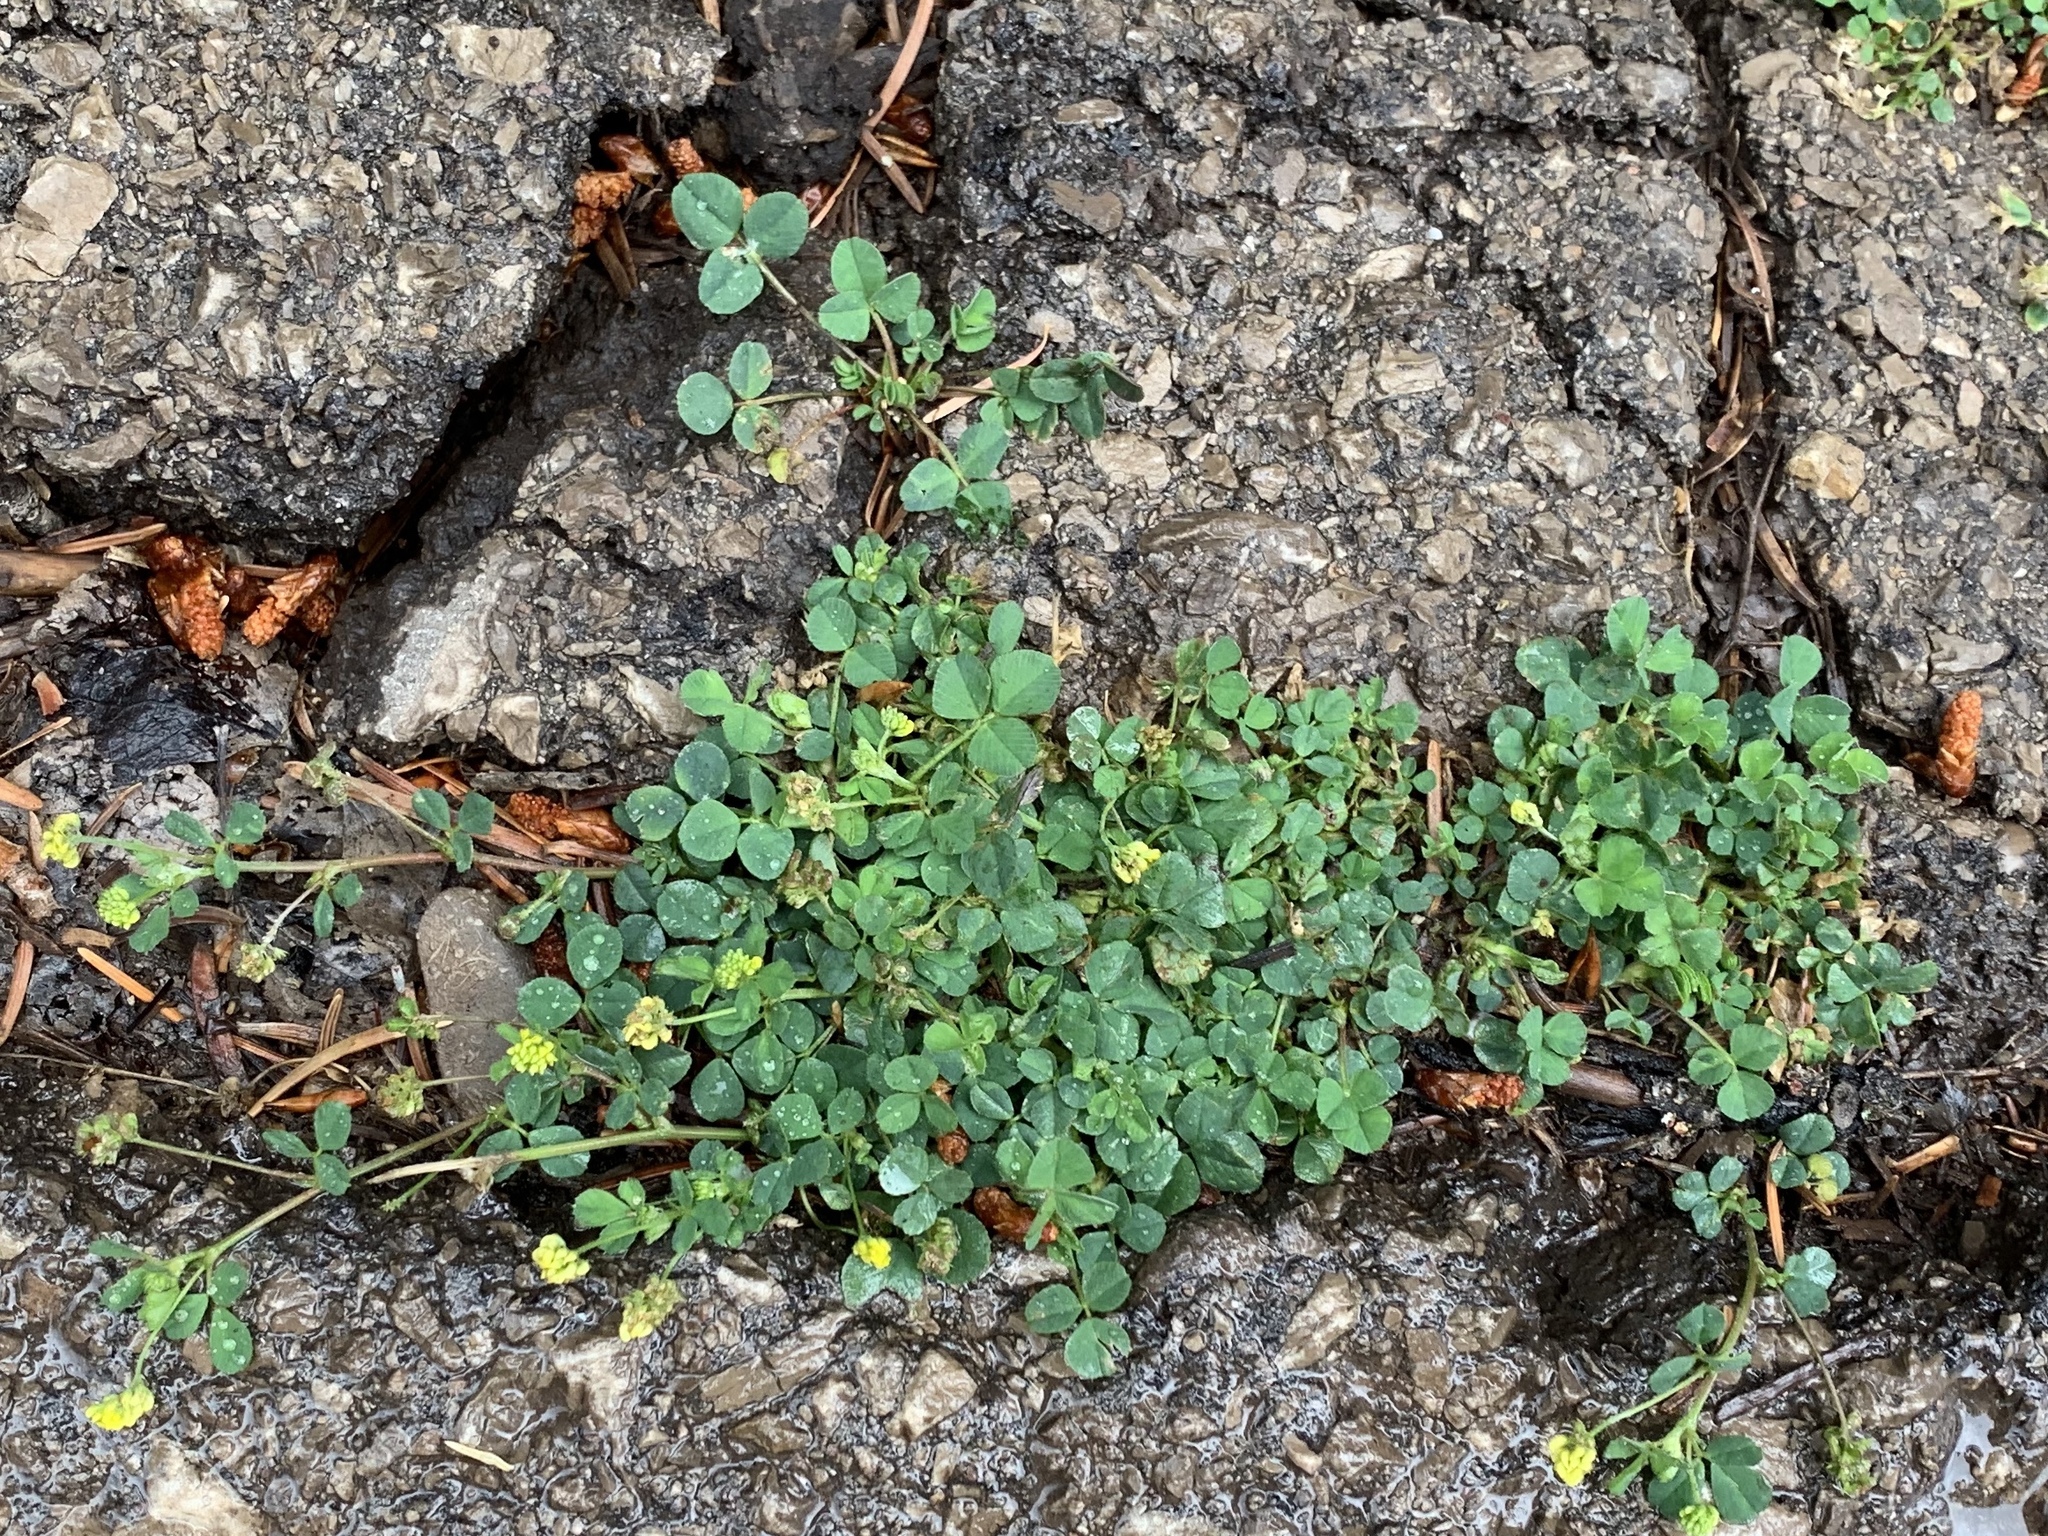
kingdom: Plantae
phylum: Tracheophyta
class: Magnoliopsida
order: Fabales
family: Fabaceae
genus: Medicago
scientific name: Medicago lupulina
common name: Black medick
